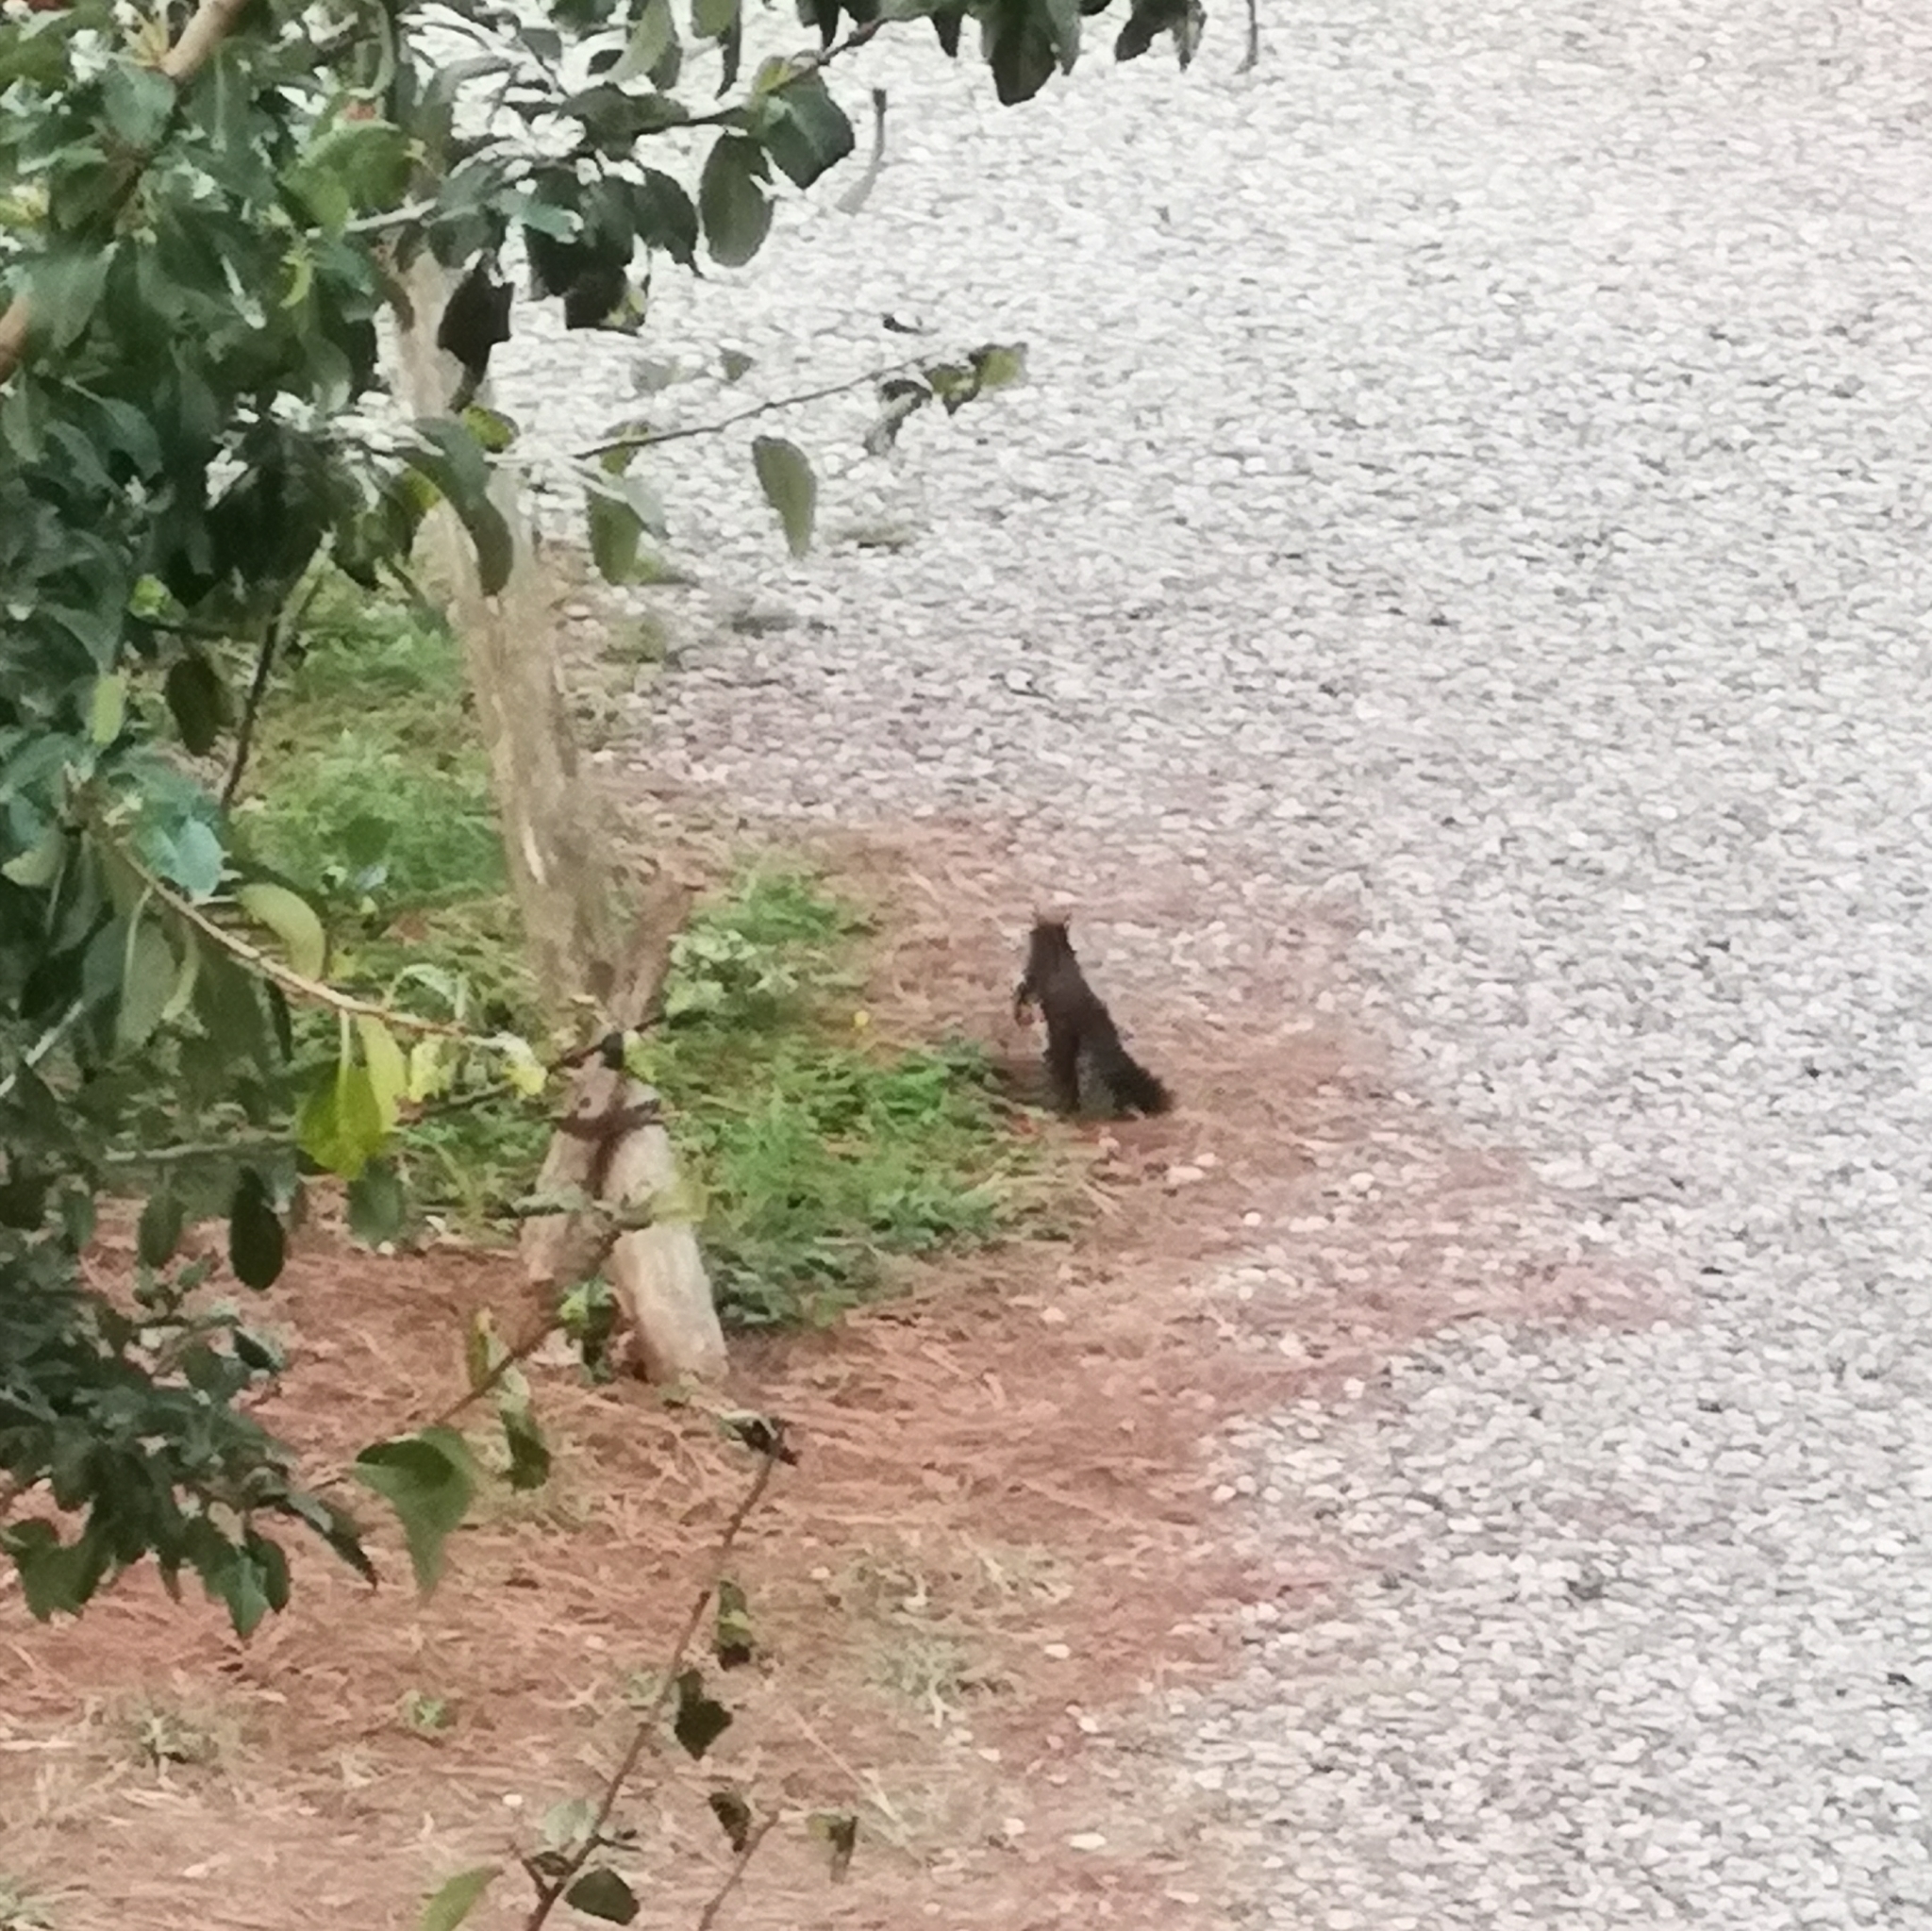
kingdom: Animalia
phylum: Chordata
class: Mammalia
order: Rodentia
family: Sciuridae
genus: Sciurus
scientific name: Sciurus vulgaris
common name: Eurasian red squirrel
